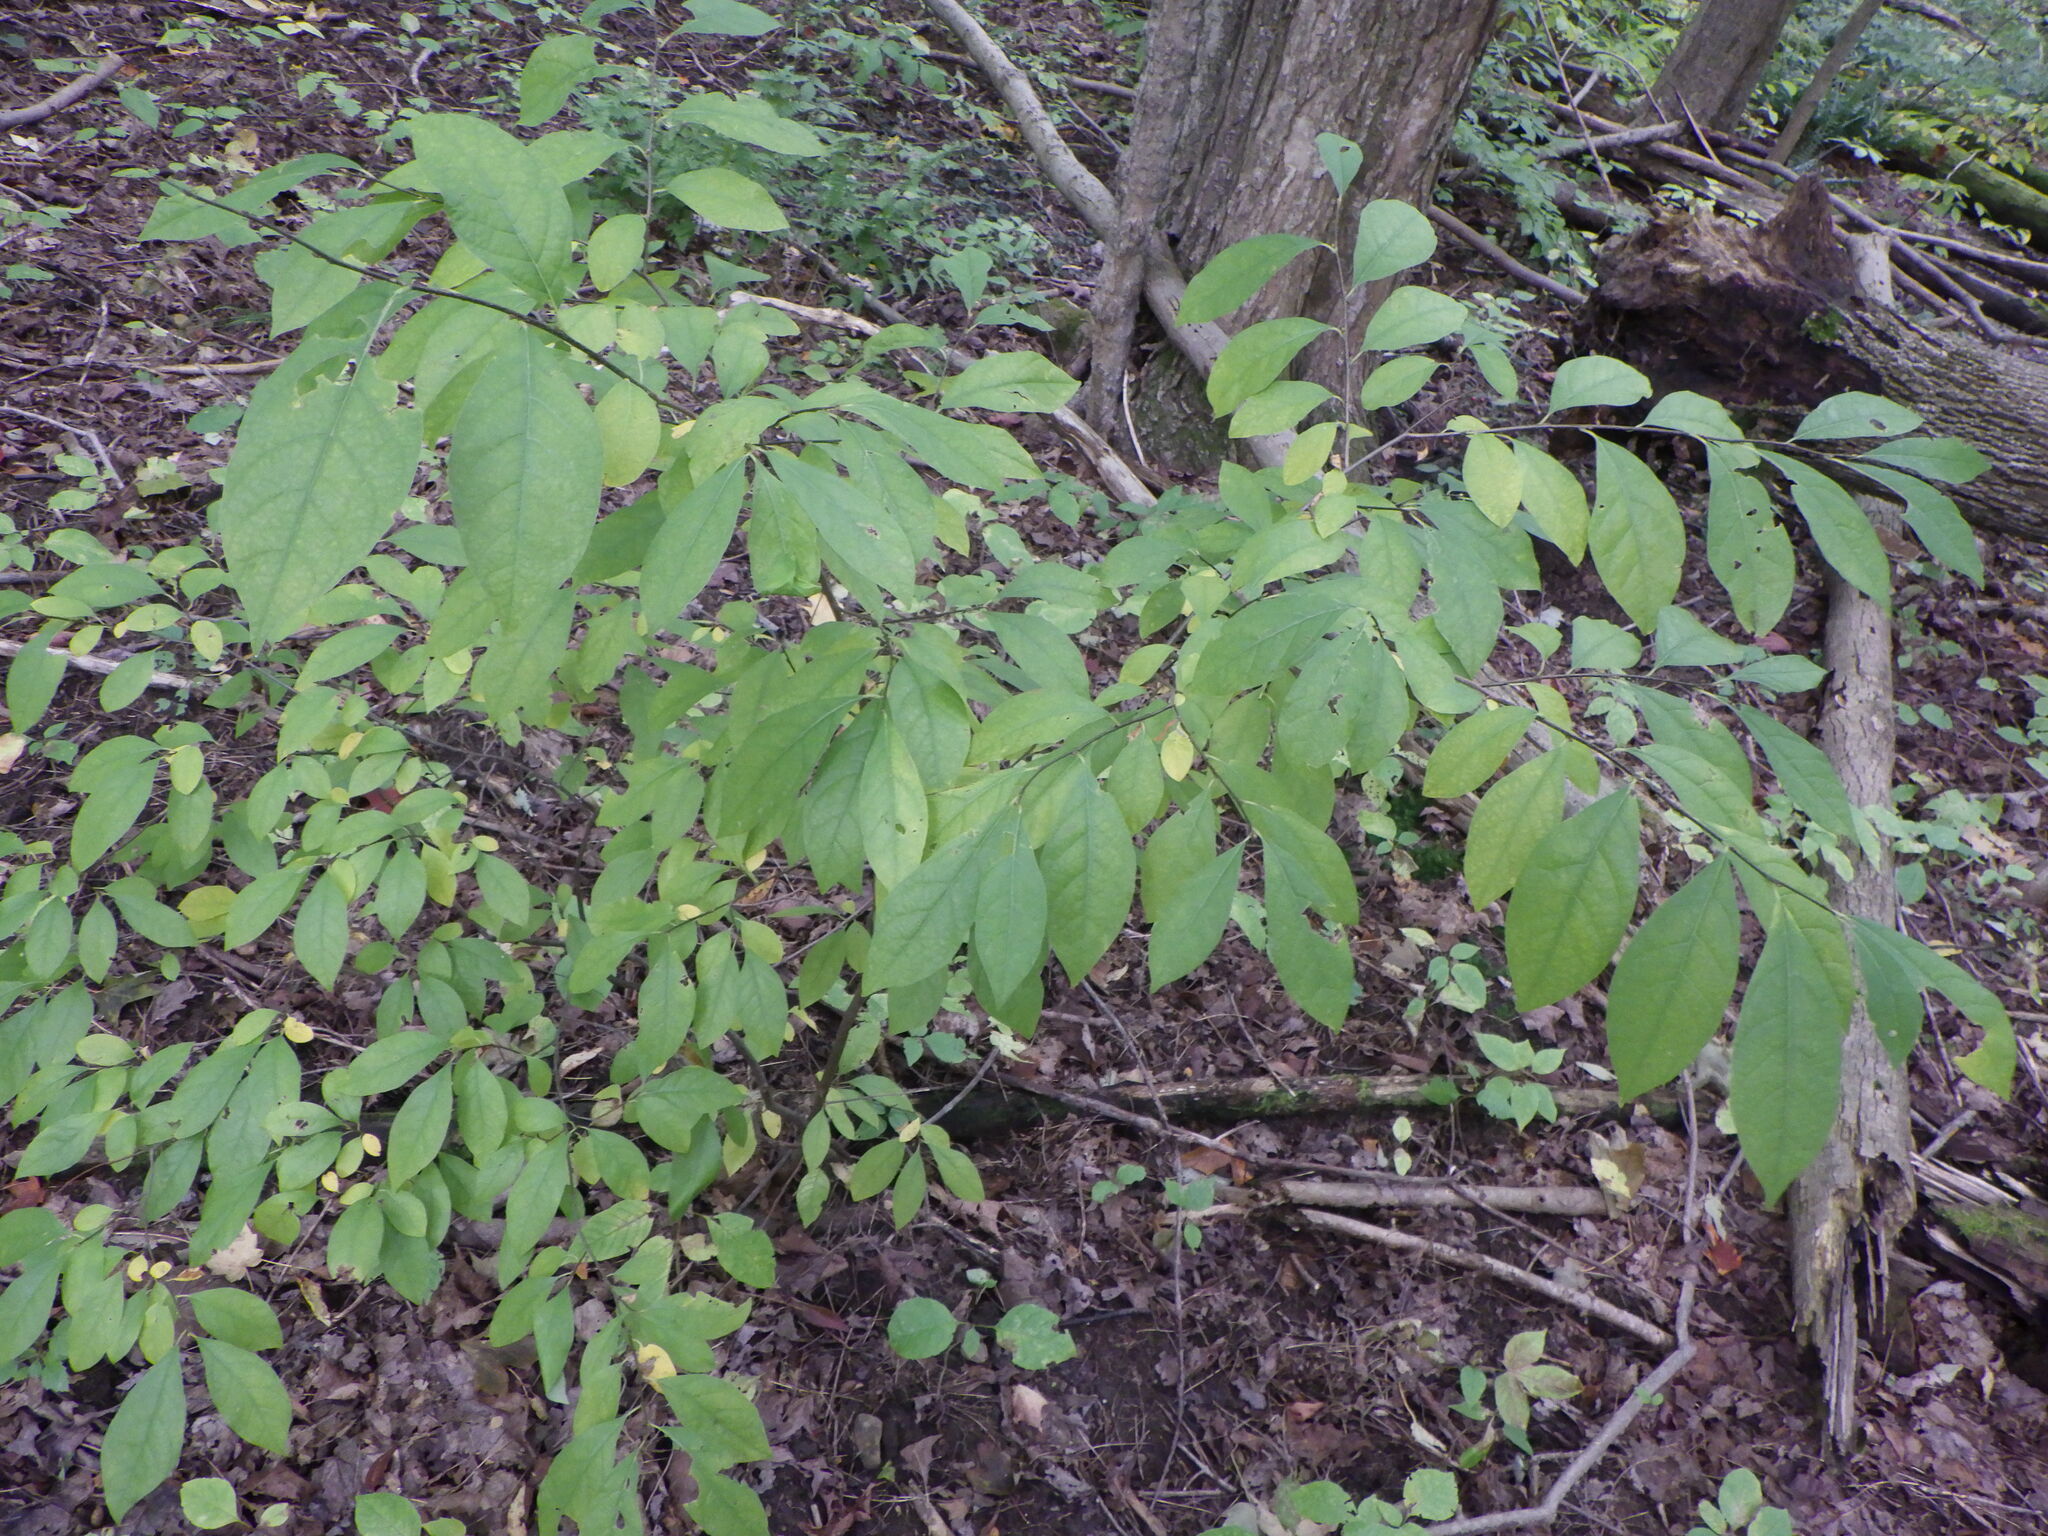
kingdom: Plantae
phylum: Tracheophyta
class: Magnoliopsida
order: Laurales
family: Lauraceae
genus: Lindera
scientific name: Lindera benzoin
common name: Spicebush
